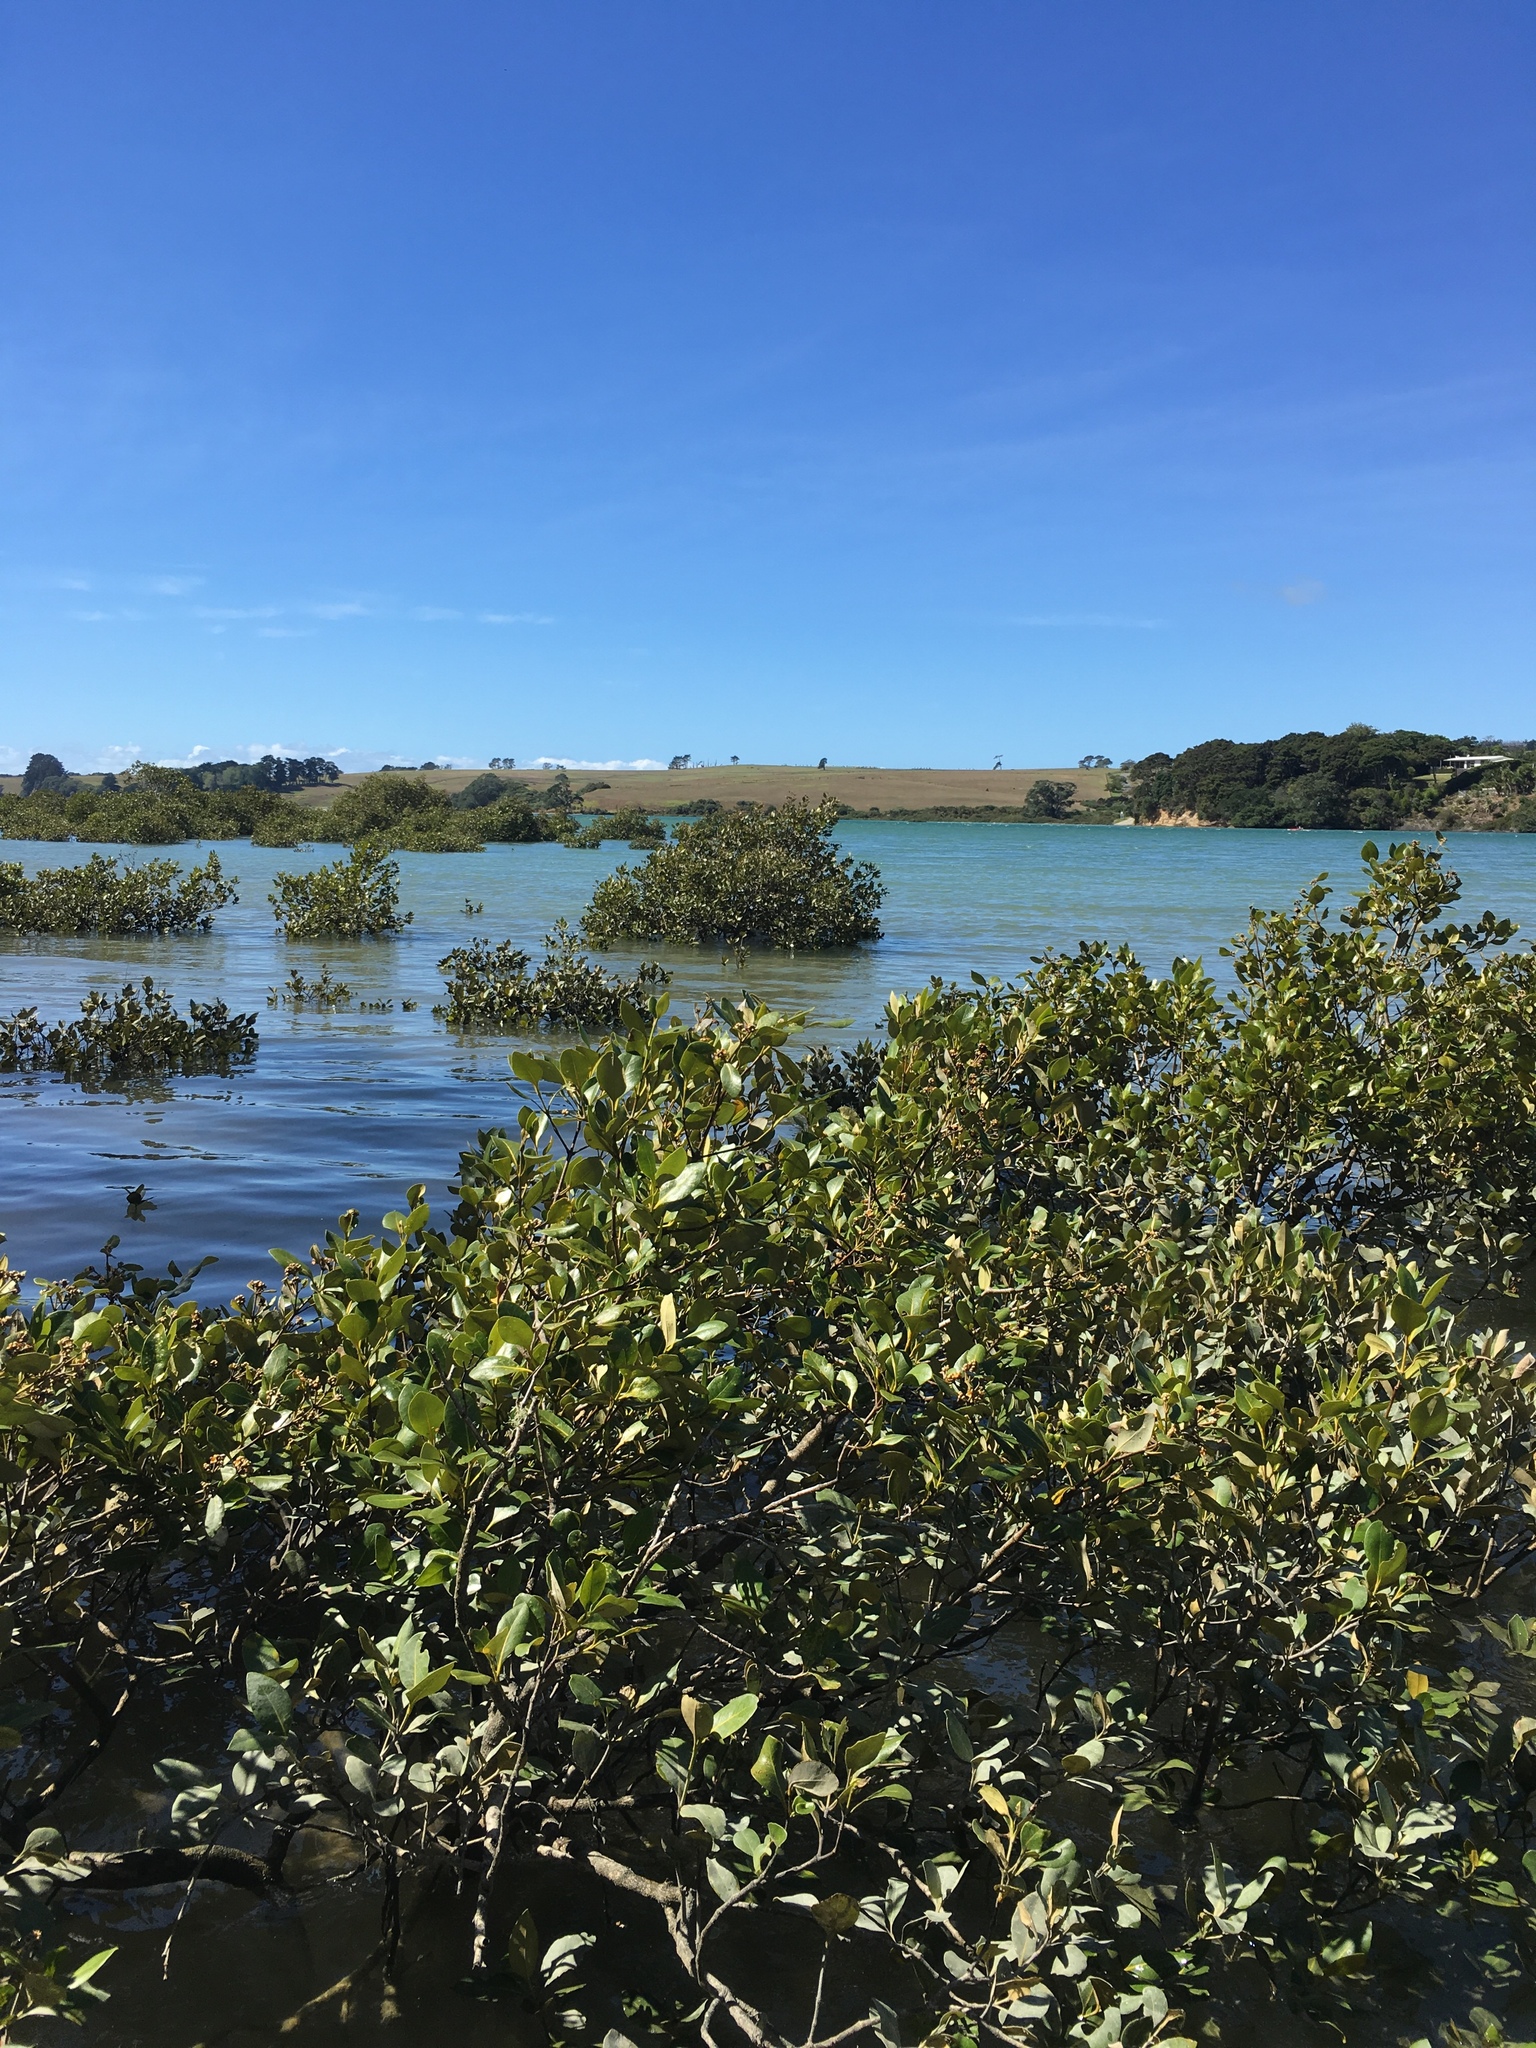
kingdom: Plantae
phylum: Tracheophyta
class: Magnoliopsida
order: Lamiales
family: Acanthaceae
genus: Avicennia
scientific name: Avicennia marina
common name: Gray mangrove
